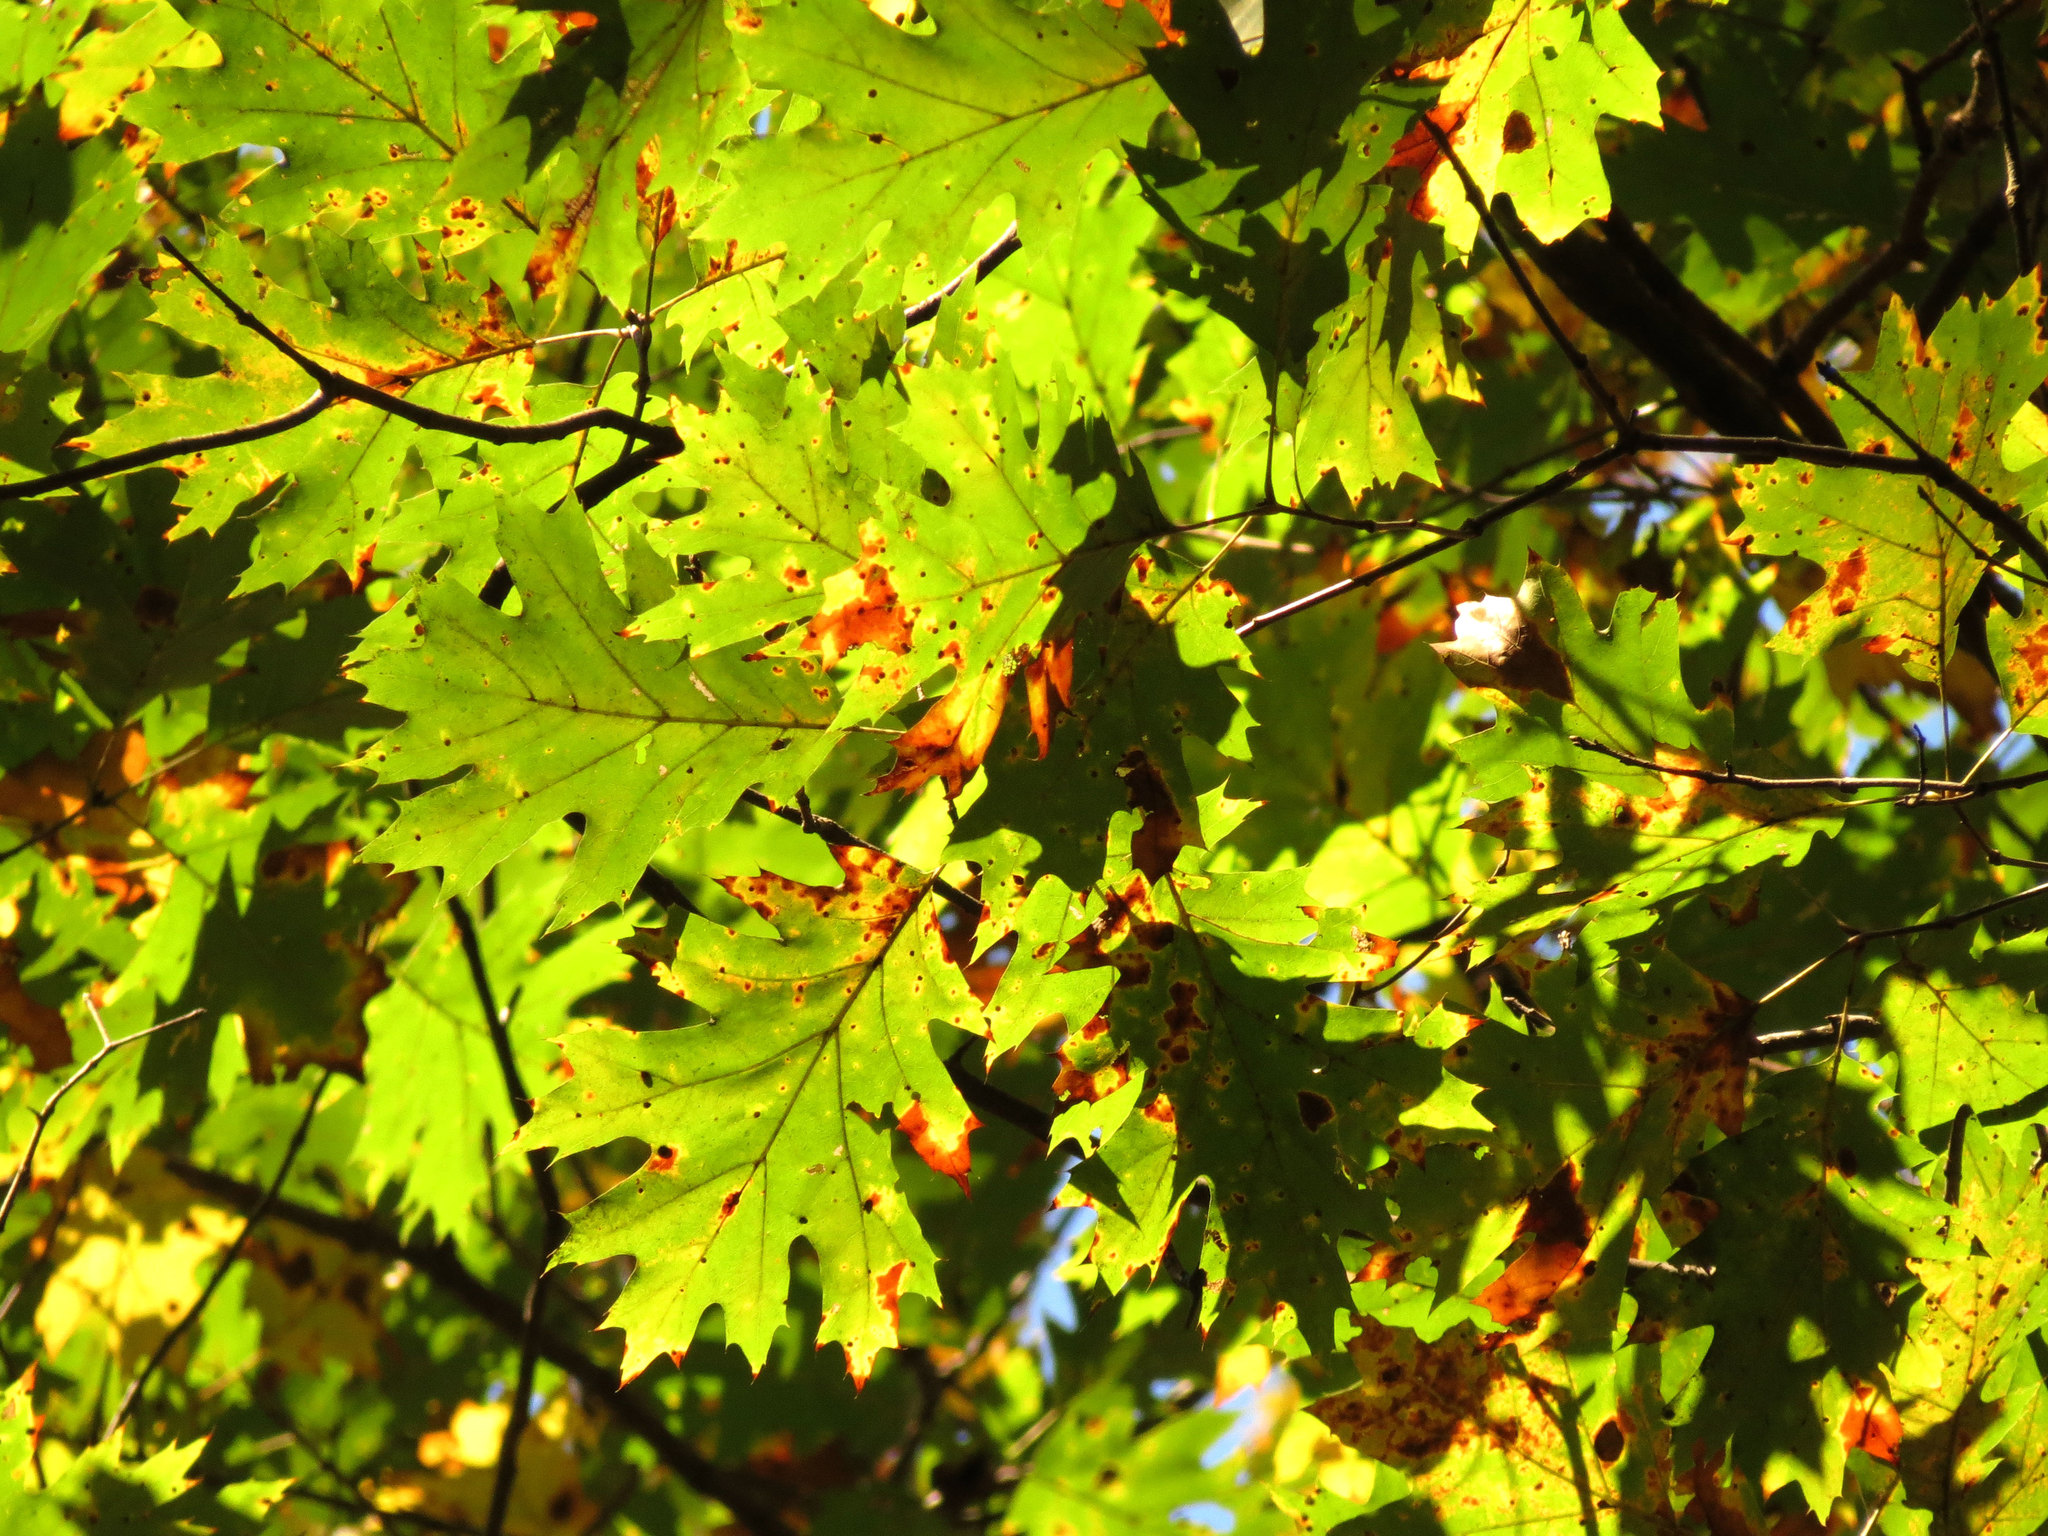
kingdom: Plantae
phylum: Tracheophyta
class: Magnoliopsida
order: Fagales
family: Fagaceae
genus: Quercus
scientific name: Quercus rubra
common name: Red oak
